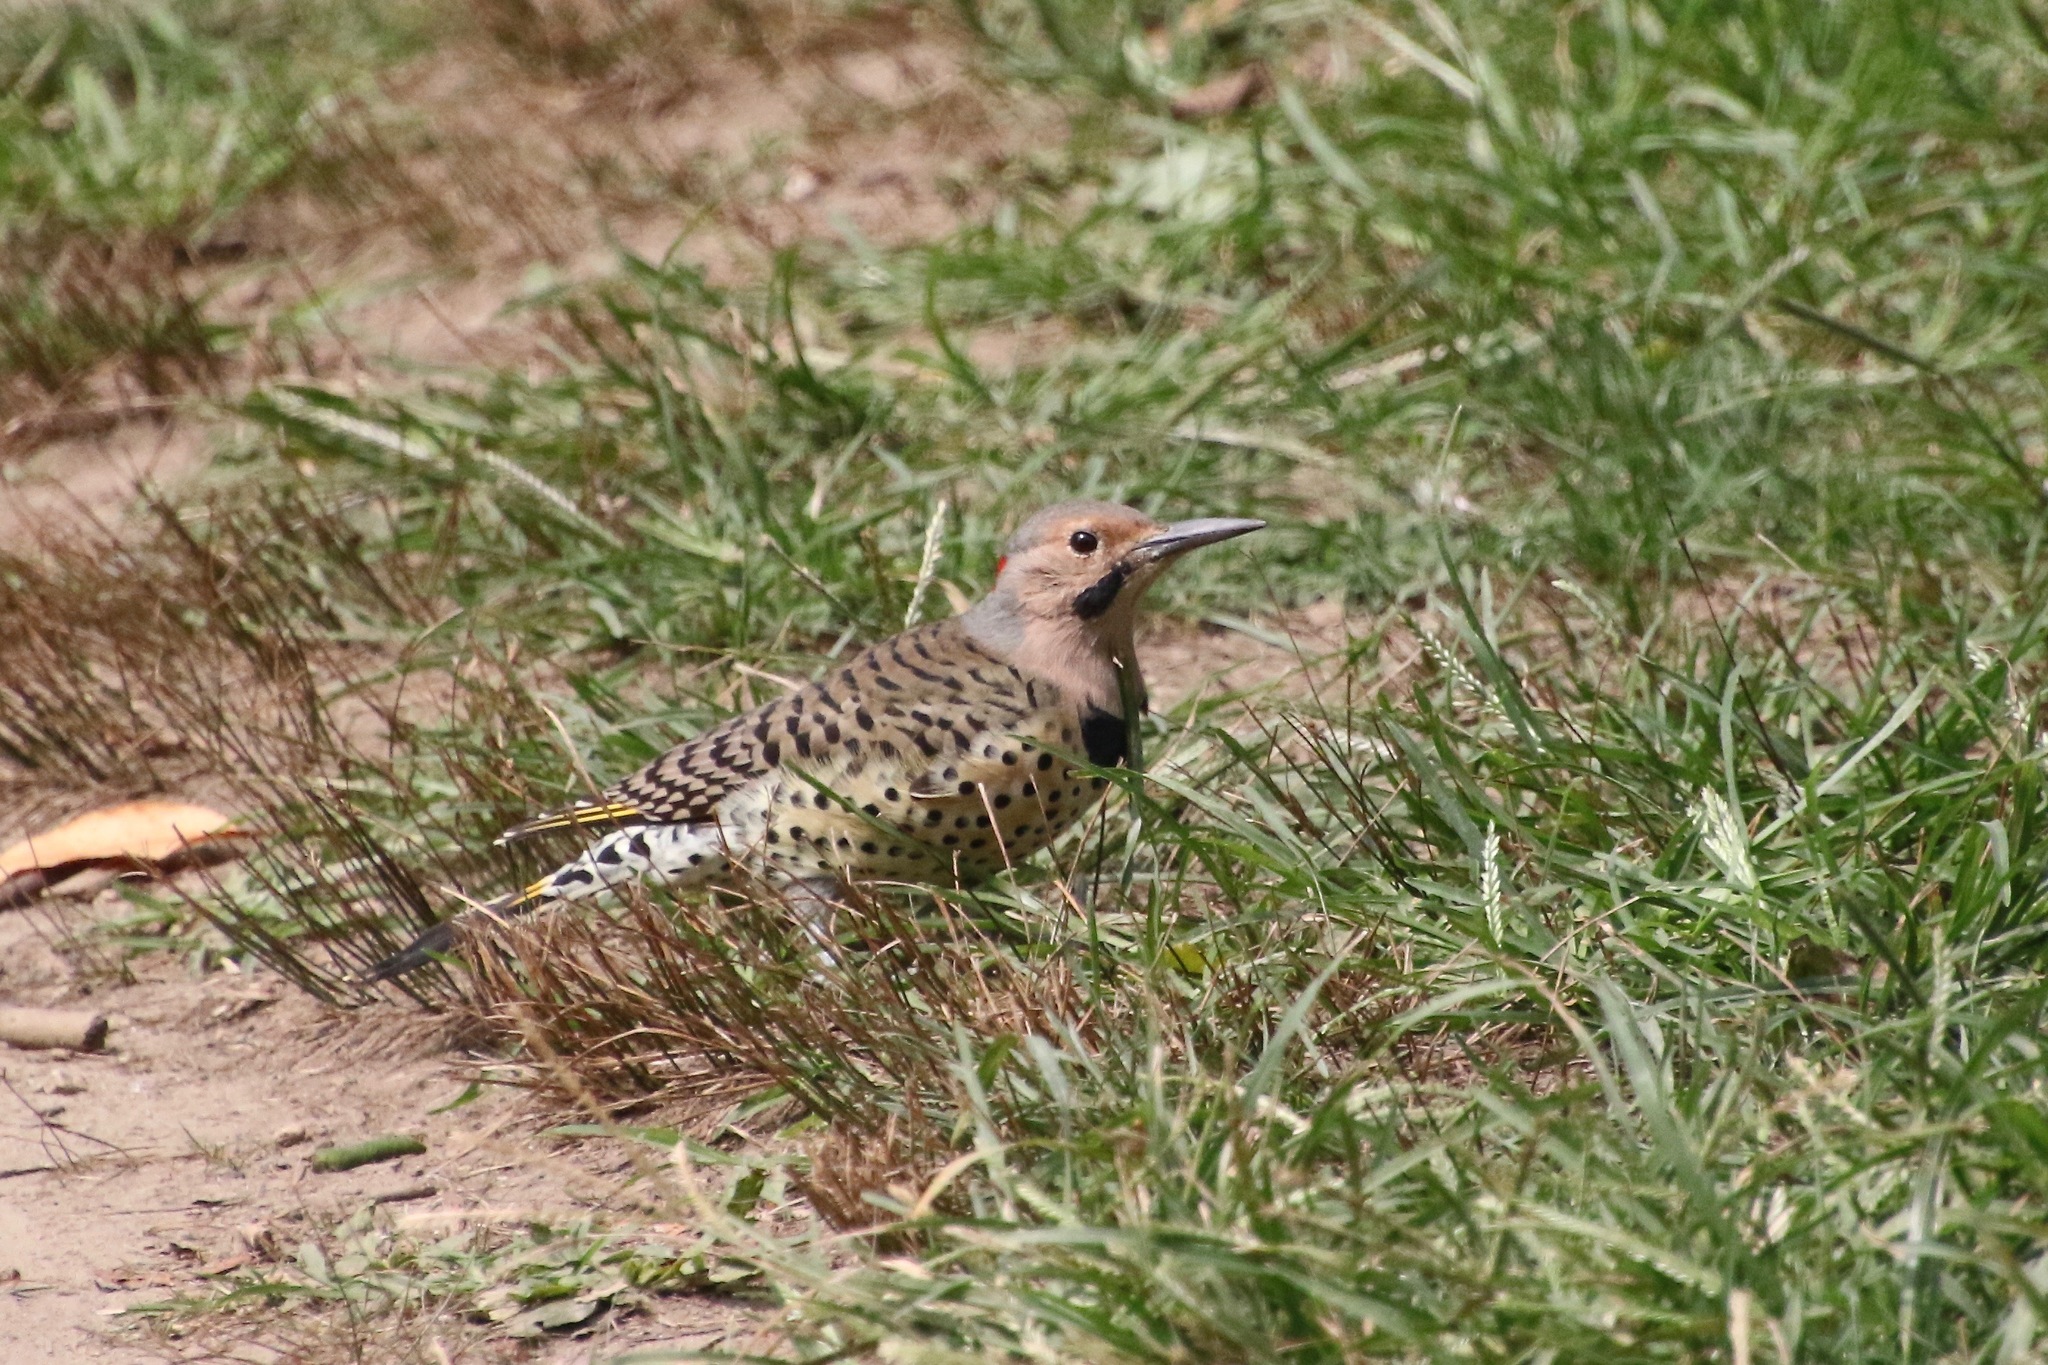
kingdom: Animalia
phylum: Chordata
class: Aves
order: Piciformes
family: Picidae
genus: Colaptes
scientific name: Colaptes auratus
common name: Northern flicker
